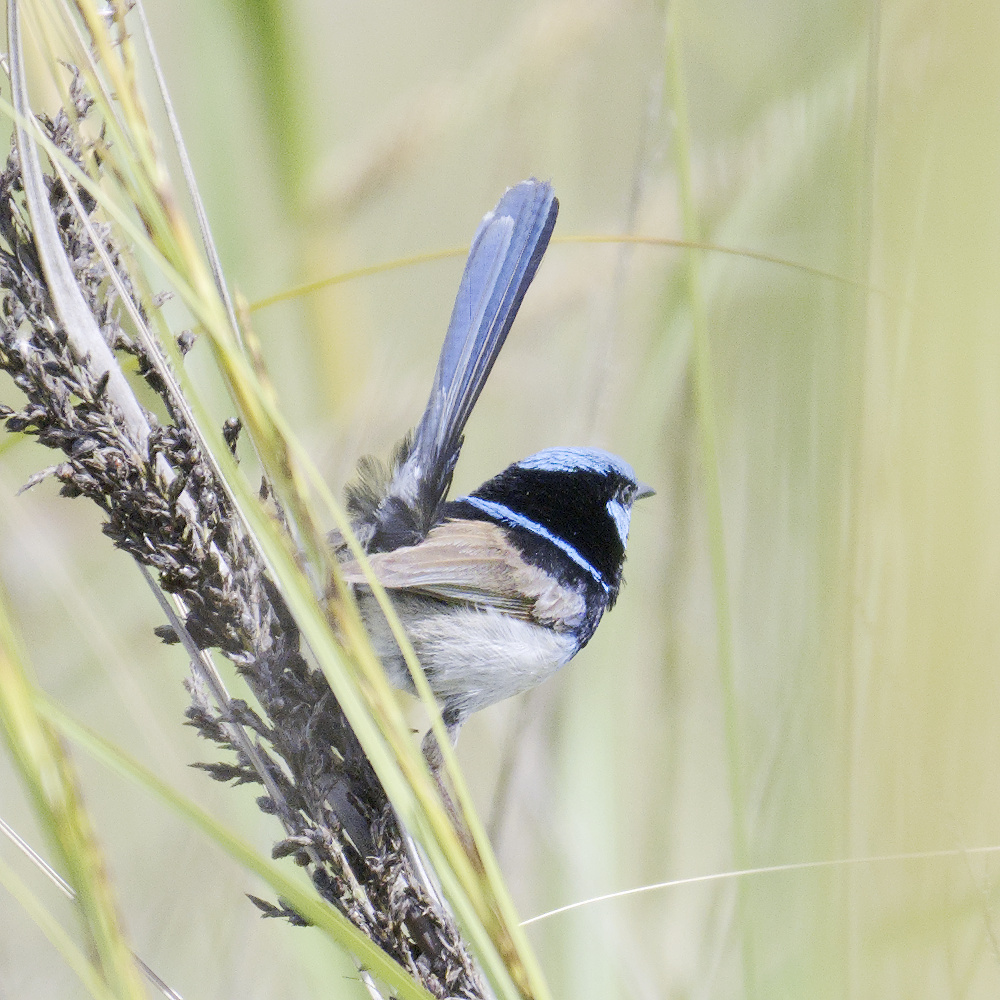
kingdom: Animalia
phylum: Chordata
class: Aves
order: Passeriformes
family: Maluridae
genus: Malurus
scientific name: Malurus cyaneus
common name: Superb fairywren
